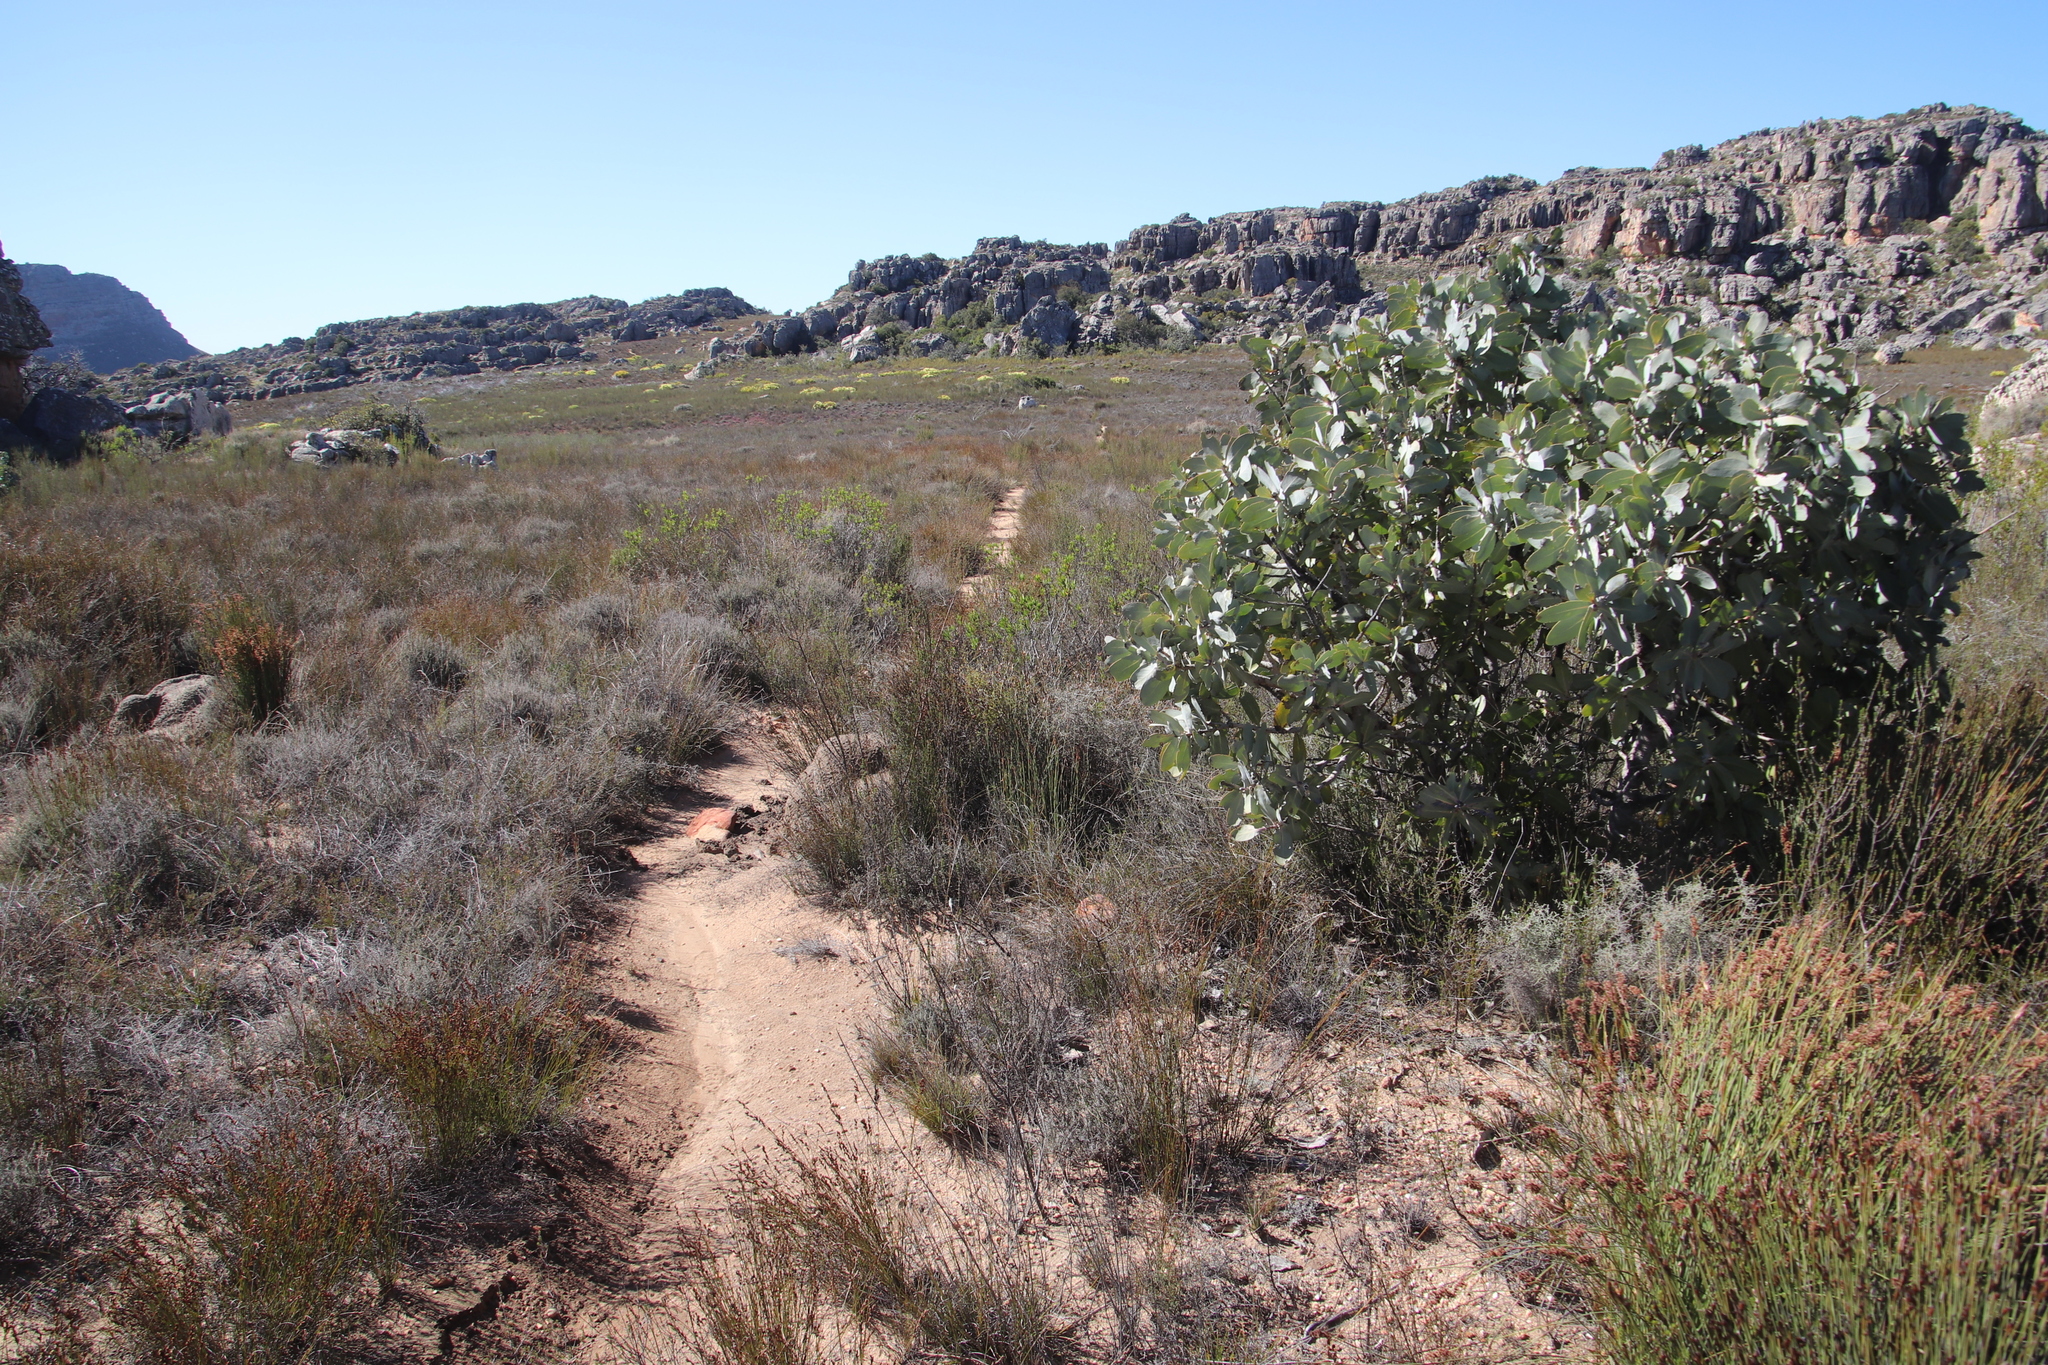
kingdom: Plantae
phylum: Tracheophyta
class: Magnoliopsida
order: Proteales
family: Proteaceae
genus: Protea
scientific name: Protea nitida
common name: Tree protea
